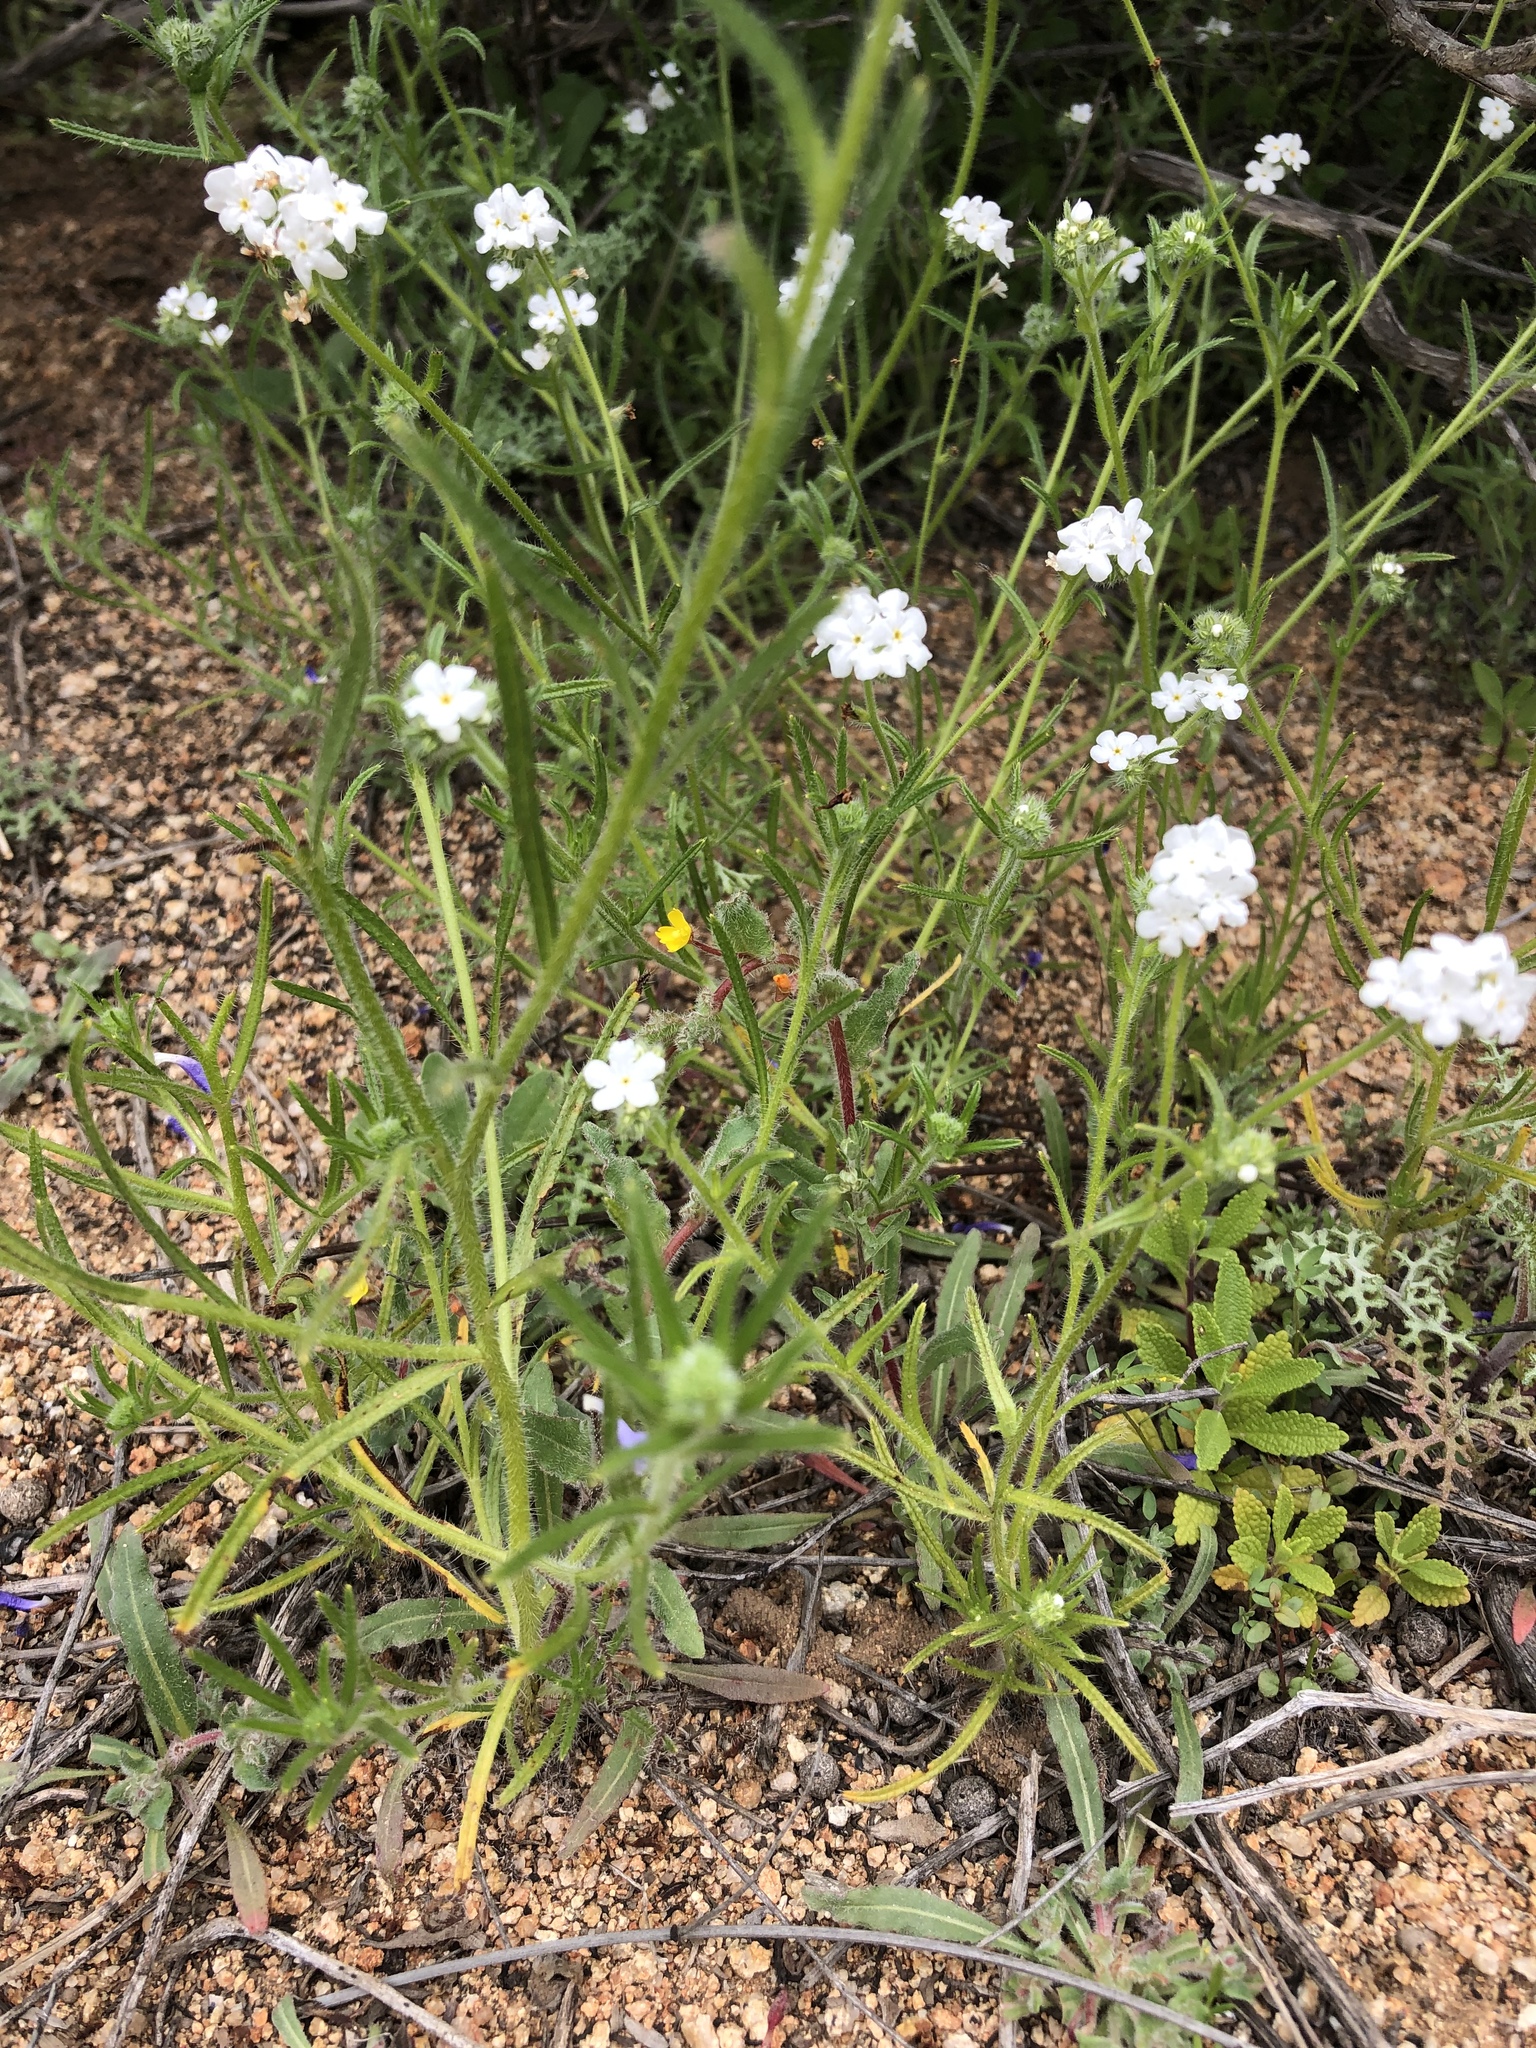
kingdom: Plantae
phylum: Tracheophyta
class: Magnoliopsida
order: Boraginales
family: Boraginaceae
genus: Cryptantha
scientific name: Cryptantha intermedia
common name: Clearwater cryptantha
